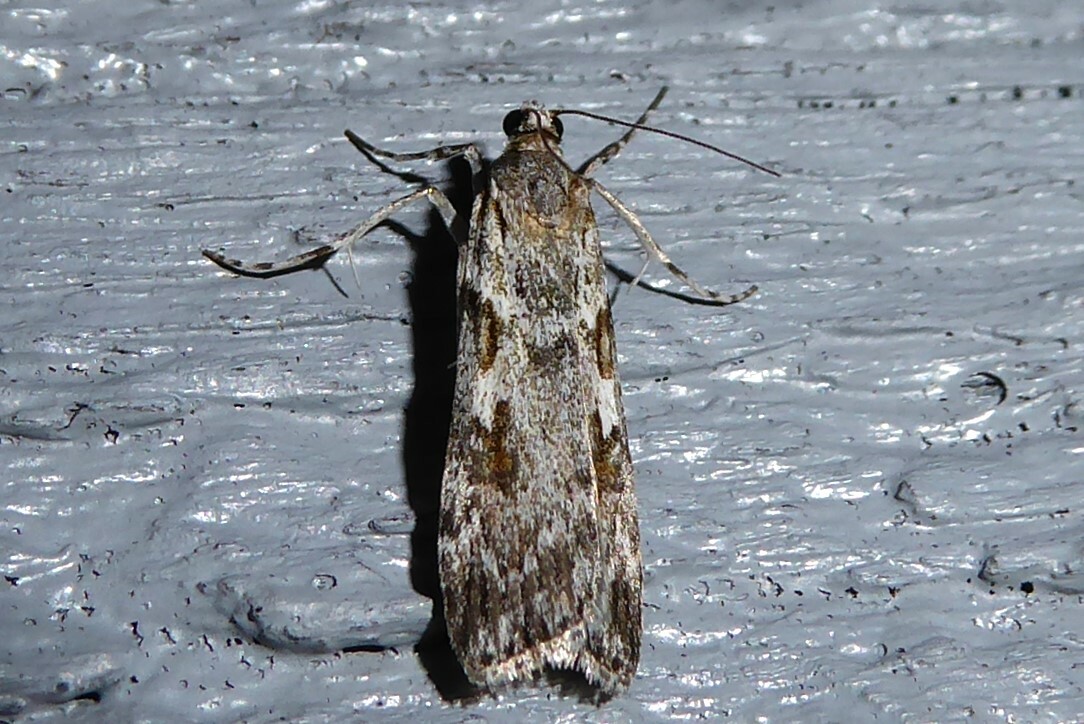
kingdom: Animalia
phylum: Arthropoda
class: Insecta
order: Lepidoptera
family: Crambidae
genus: Scoparia
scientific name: Scoparia halopis
